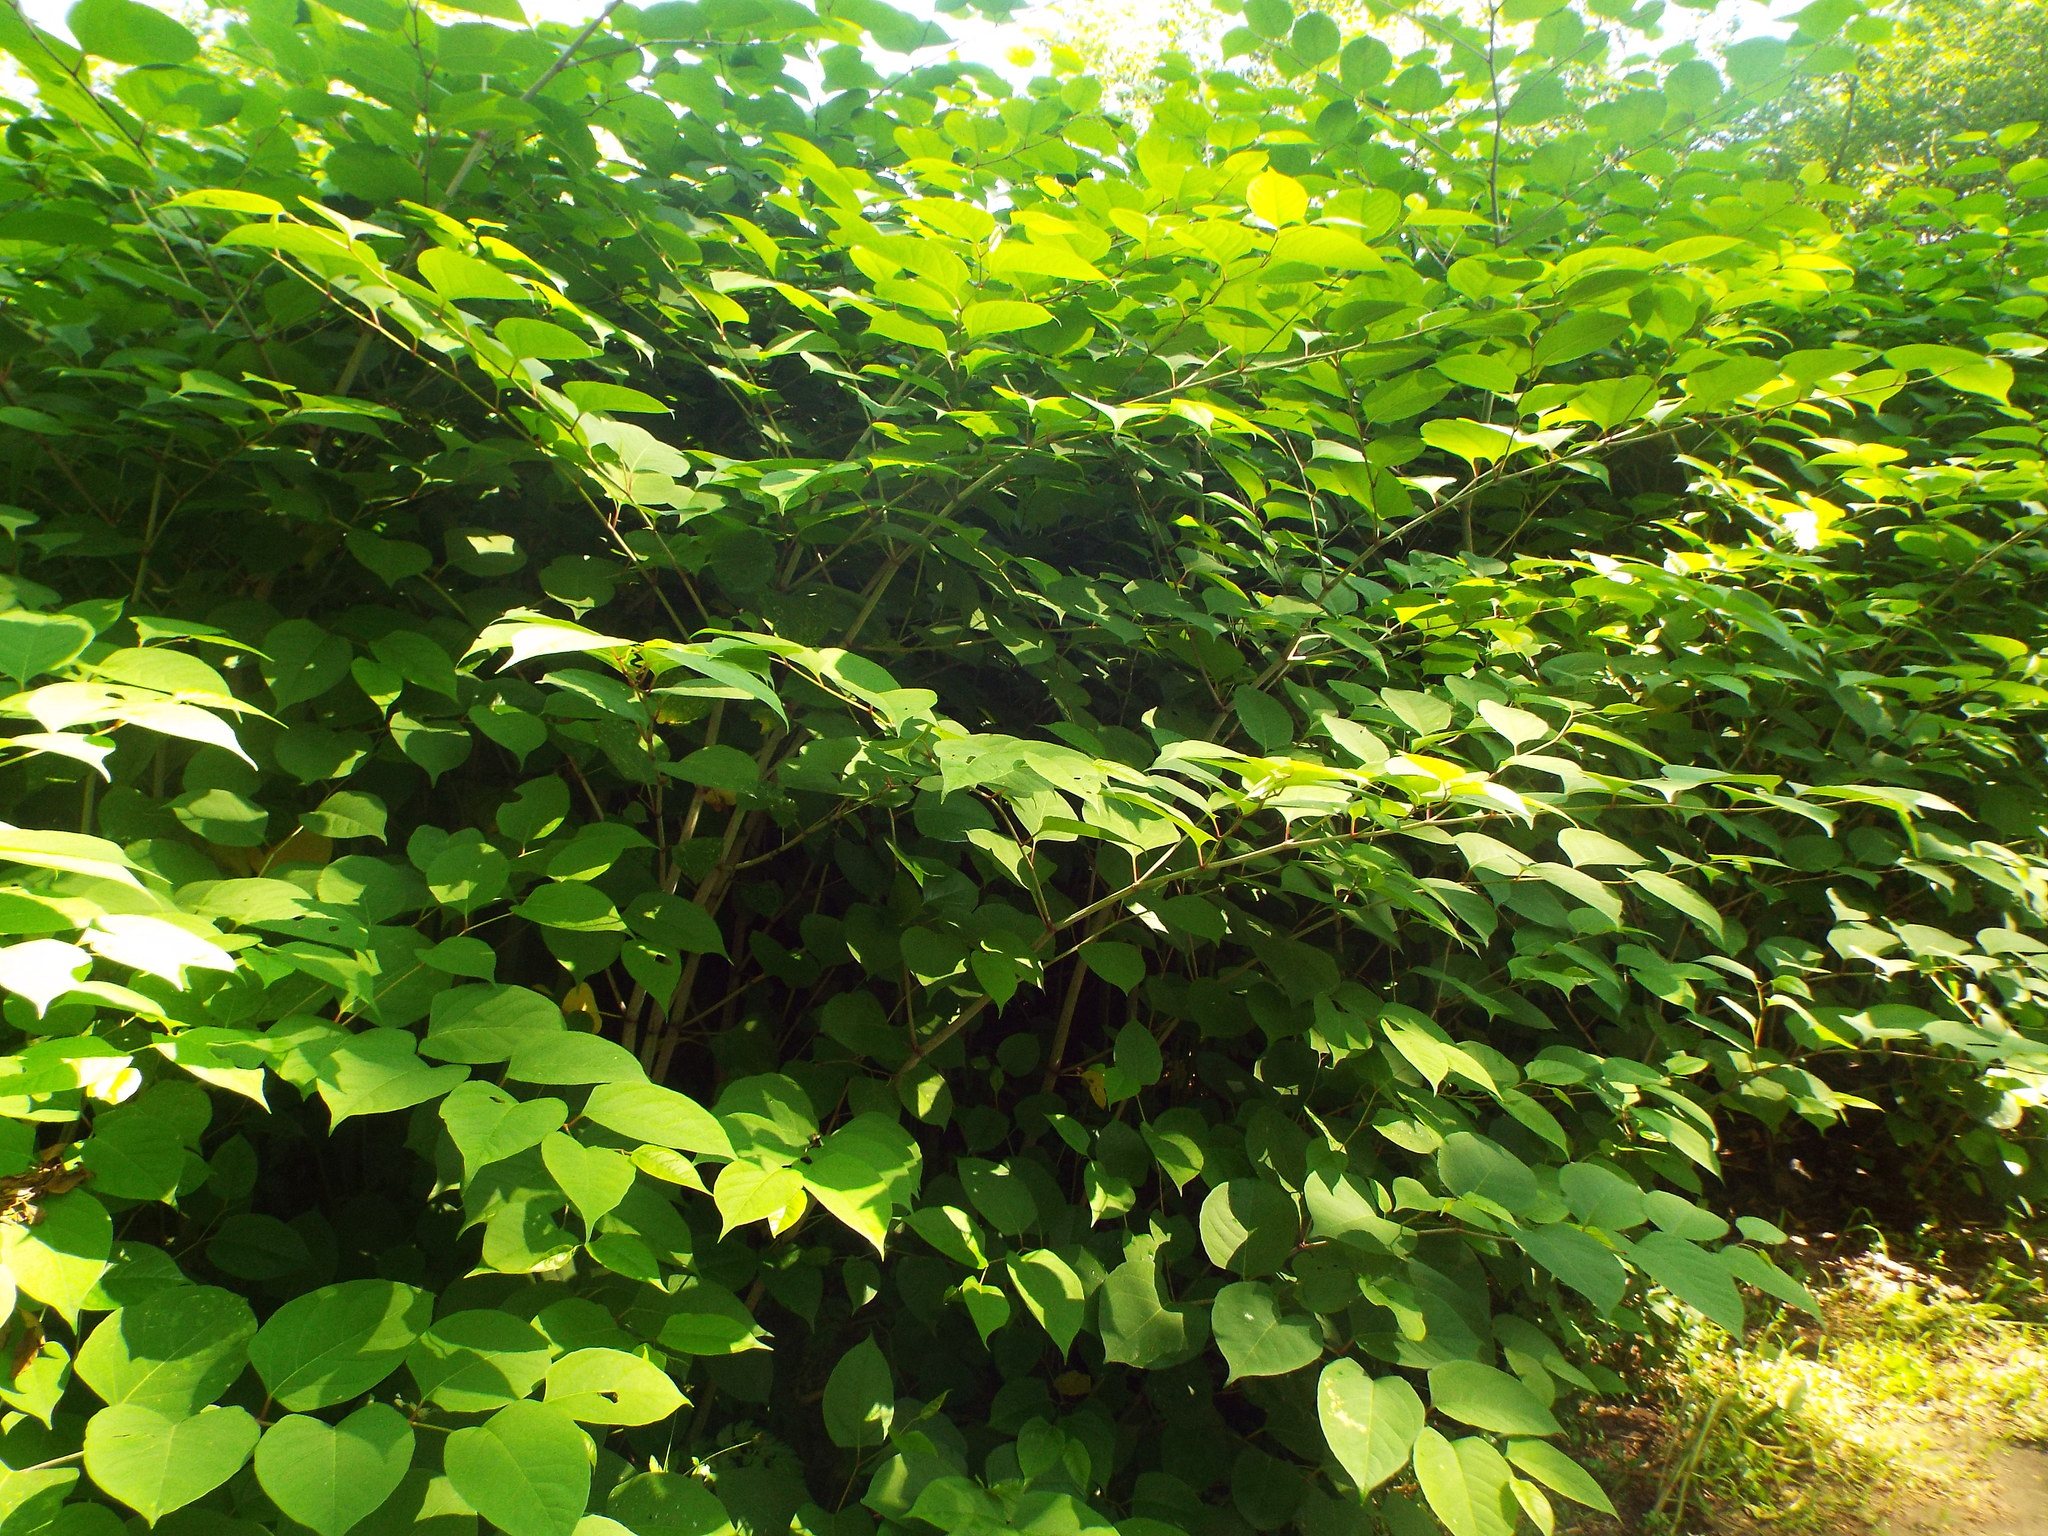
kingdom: Plantae
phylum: Tracheophyta
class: Magnoliopsida
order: Caryophyllales
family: Polygonaceae
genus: Reynoutria
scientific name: Reynoutria japonica
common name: Japanese knotweed
